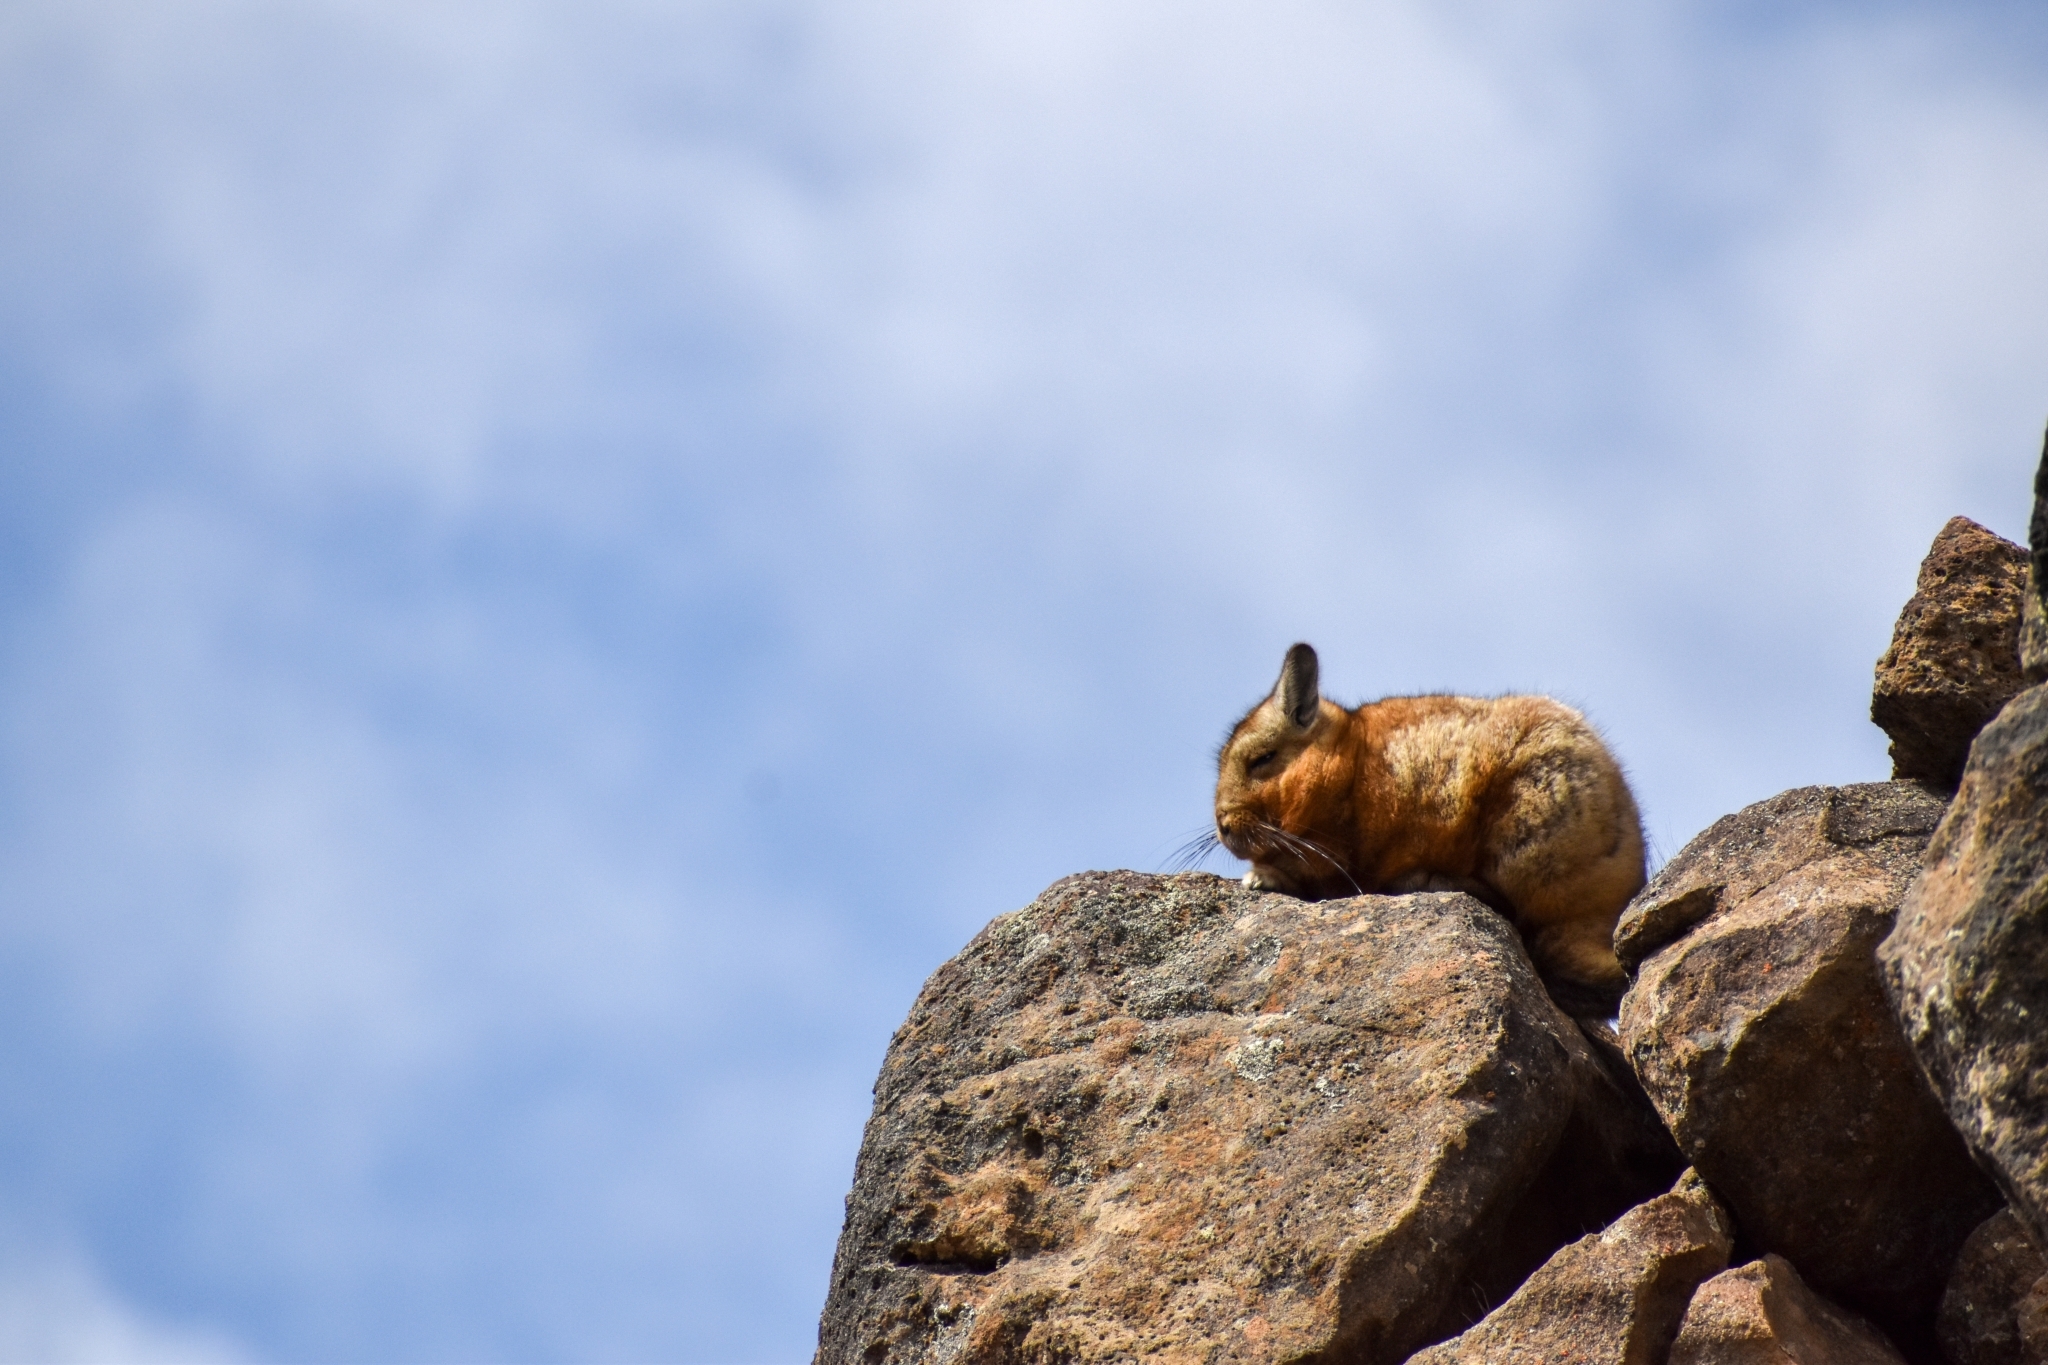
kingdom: Animalia
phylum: Chordata
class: Mammalia
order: Rodentia
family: Chinchillidae
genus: Lagidium
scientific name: Lagidium wolffsohni
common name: Wolffsohn's viscacha
